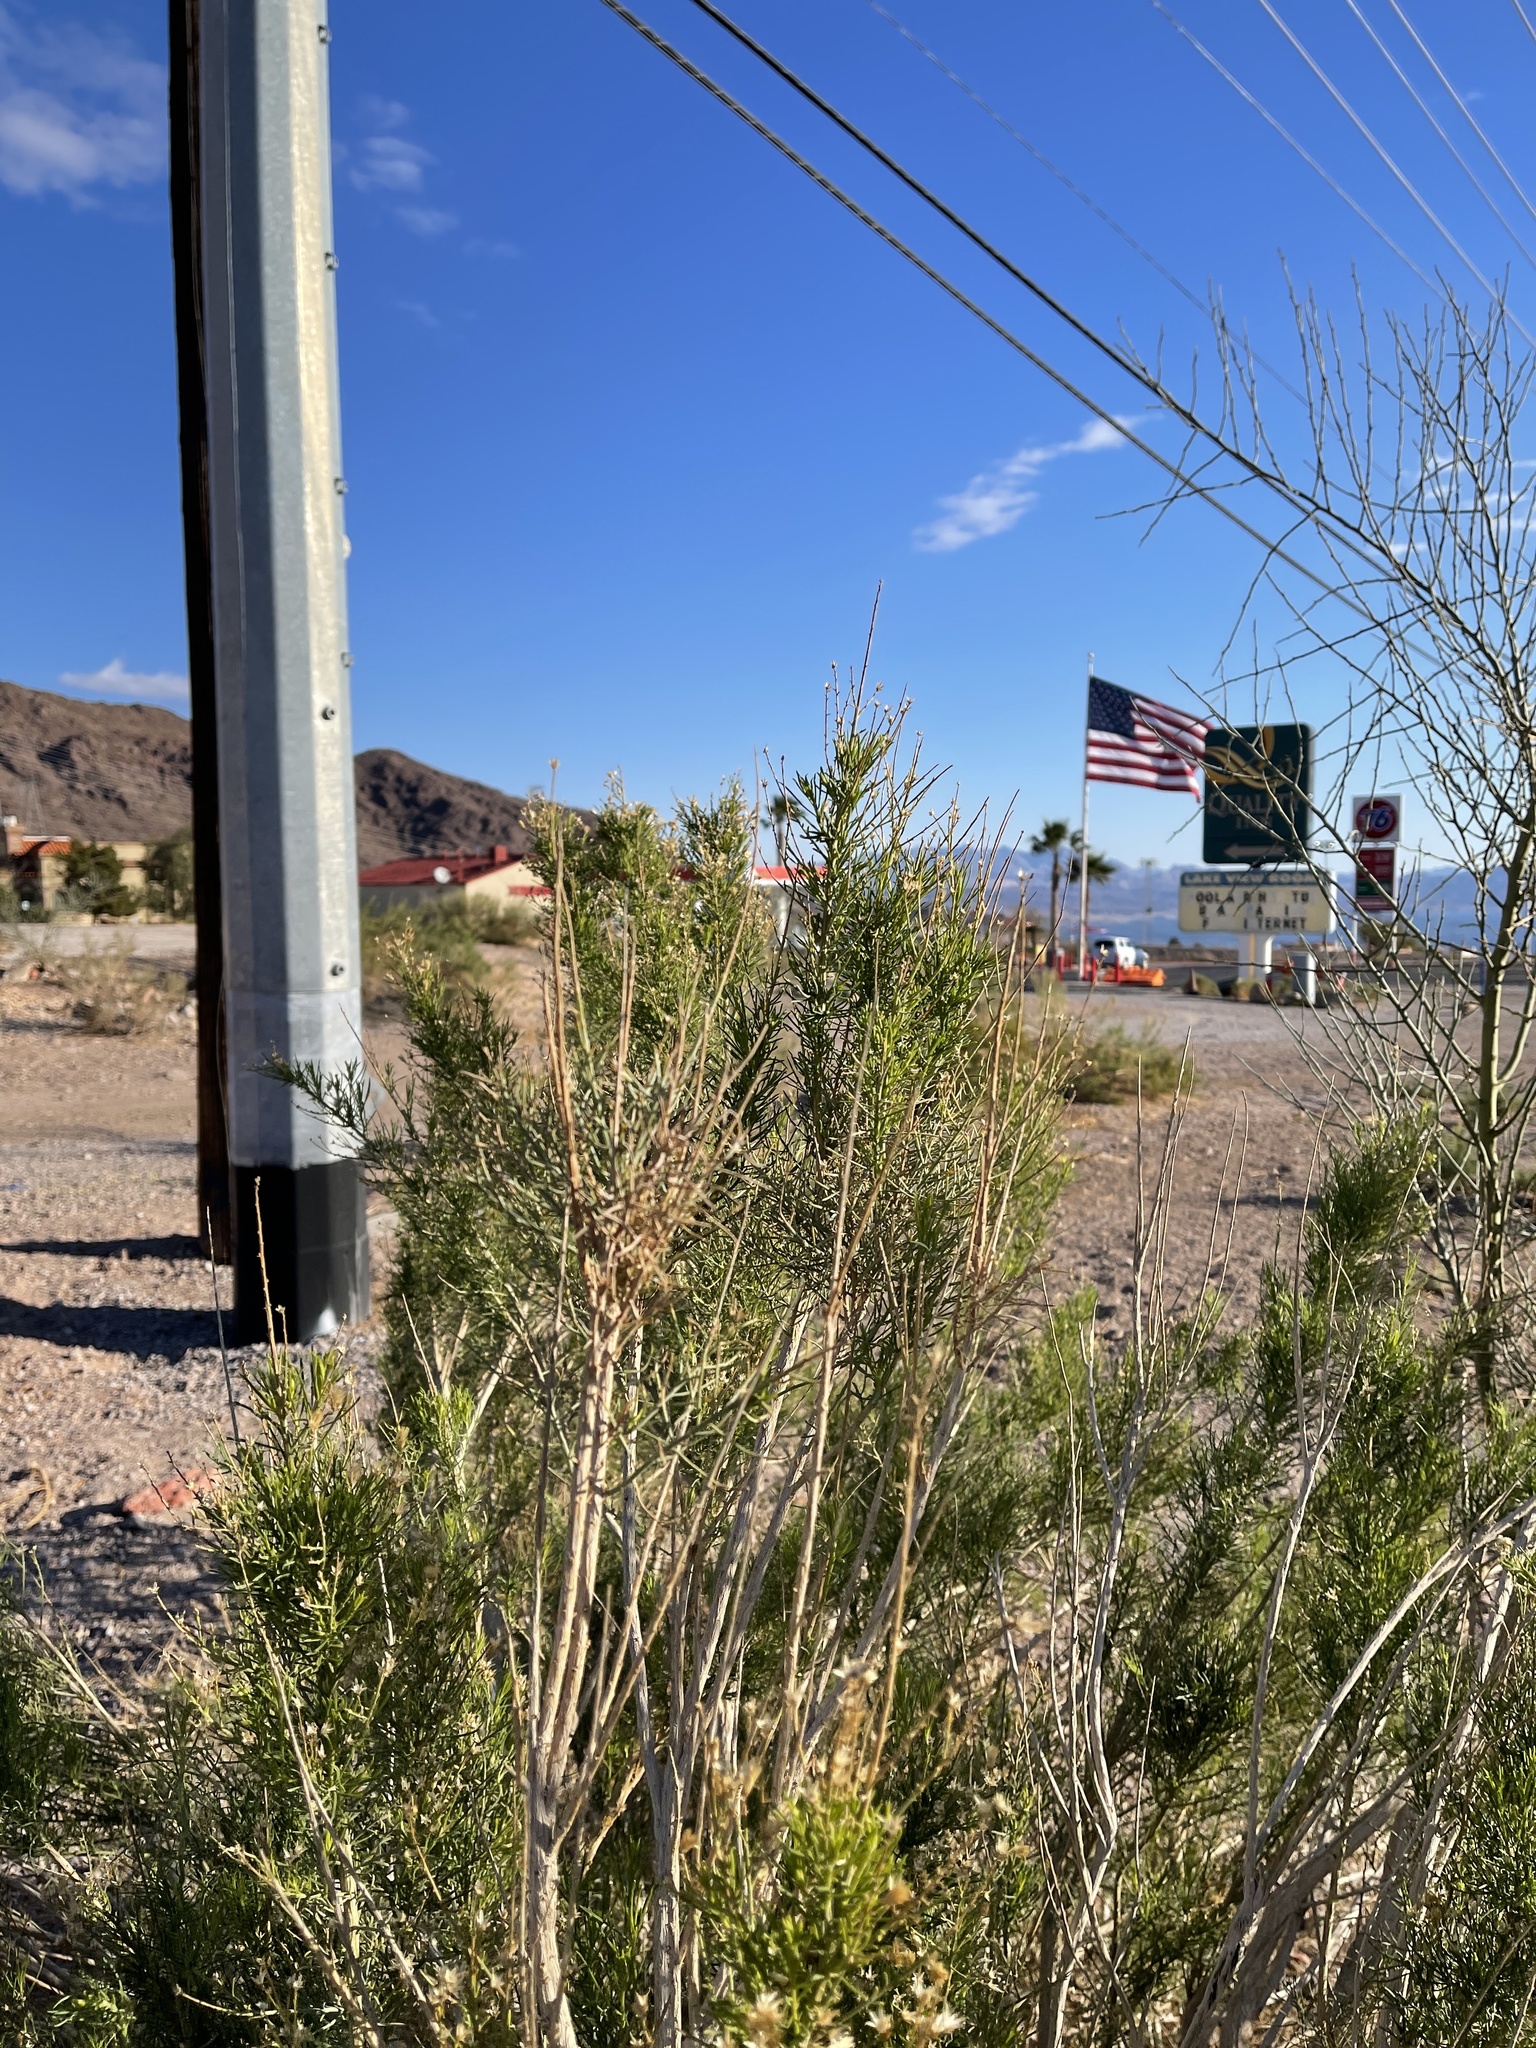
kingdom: Plantae
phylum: Tracheophyta
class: Magnoliopsida
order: Asterales
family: Asteraceae
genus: Baccharis
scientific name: Baccharis sarothroides
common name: Desert-broom
